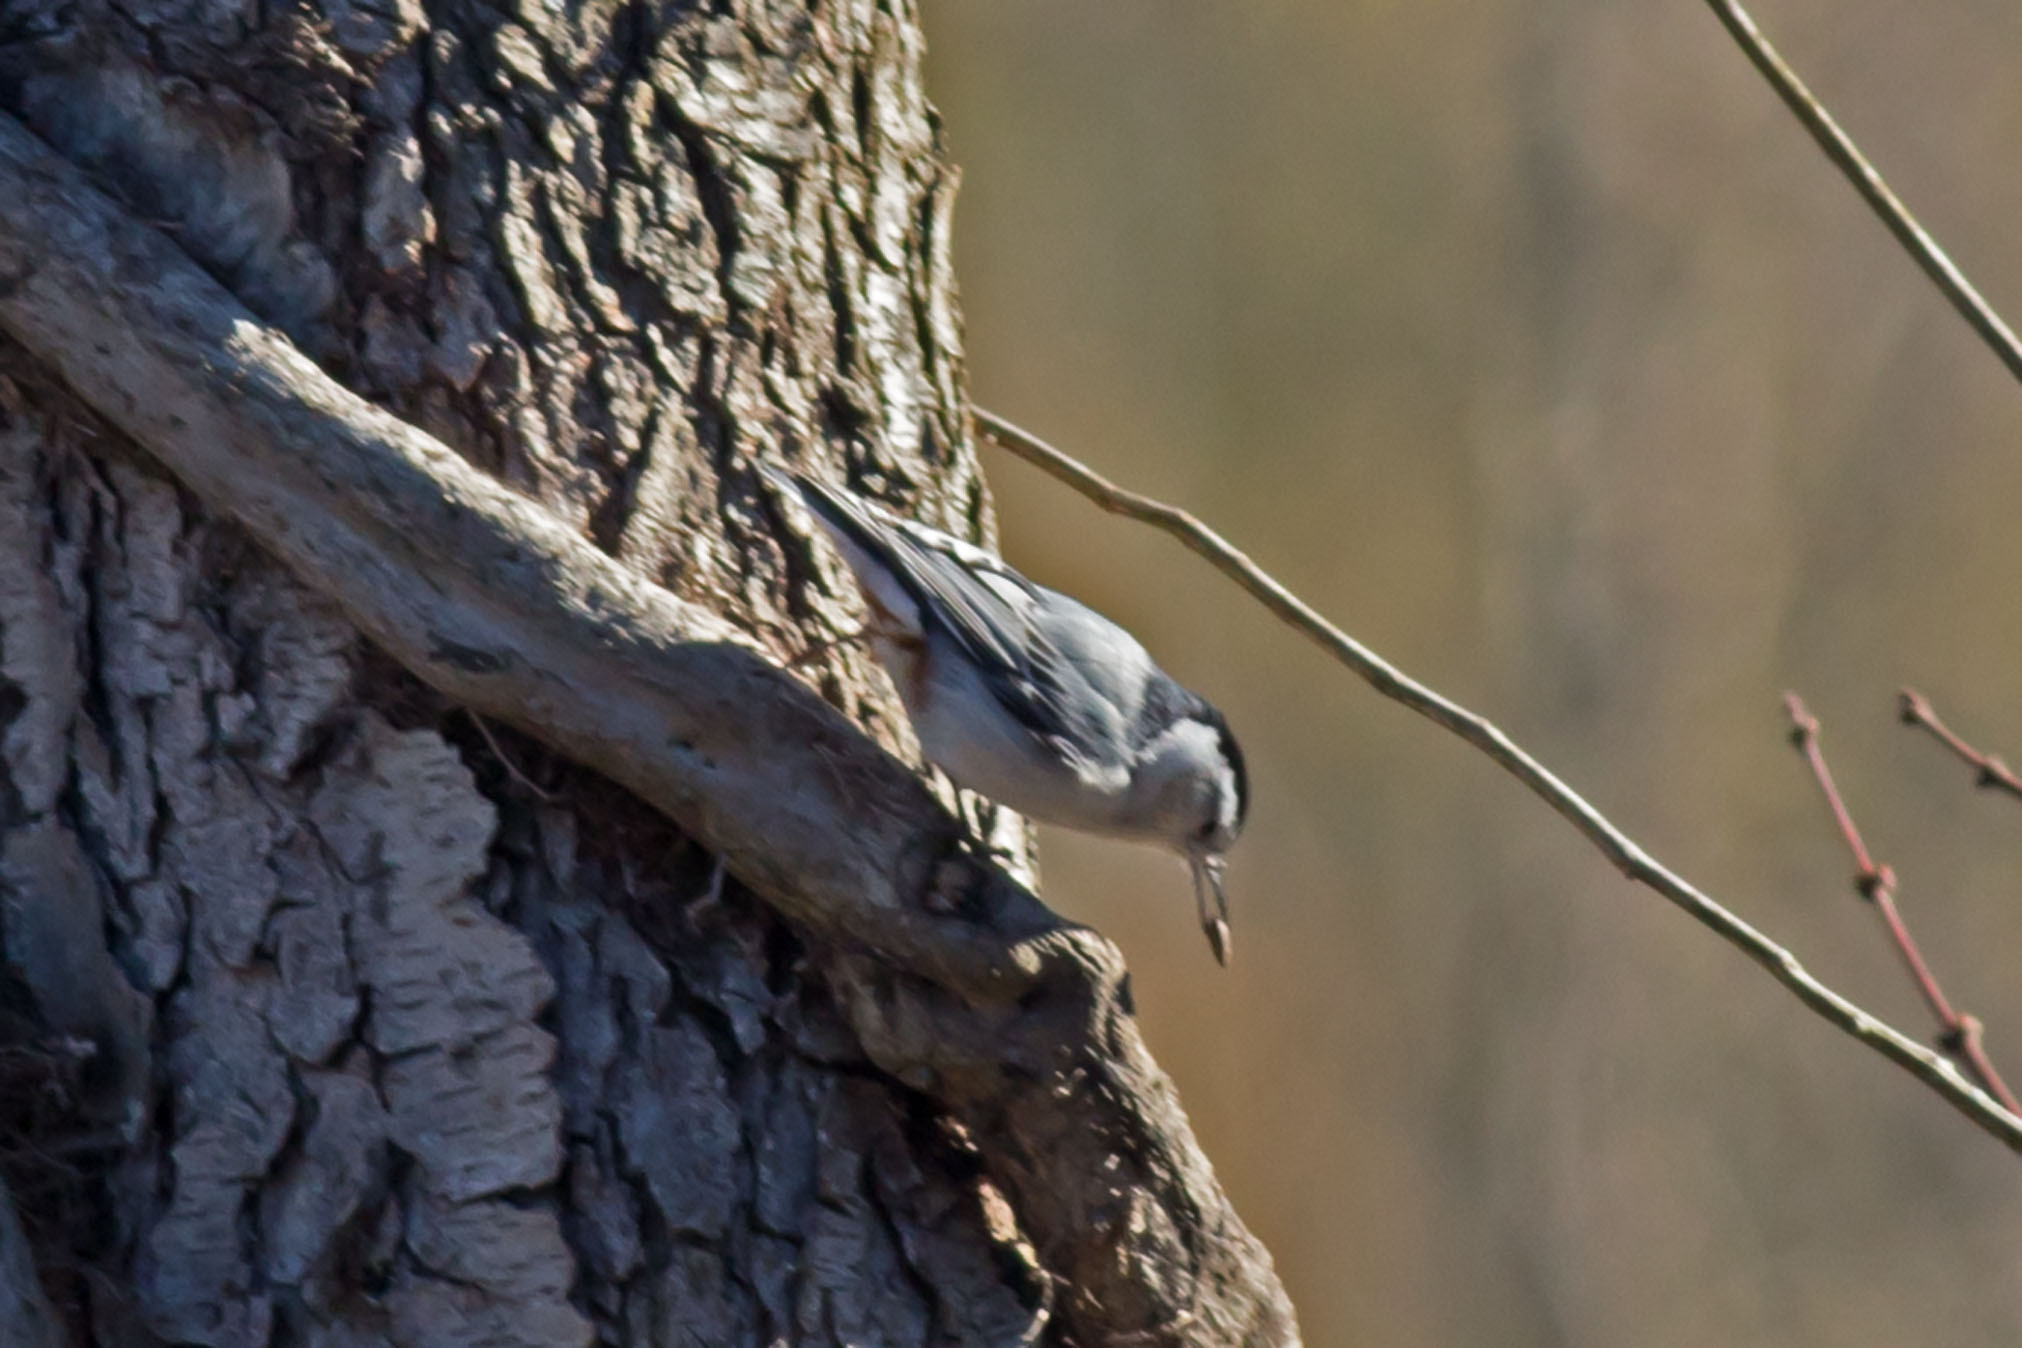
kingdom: Animalia
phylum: Chordata
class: Aves
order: Passeriformes
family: Sittidae
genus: Sitta
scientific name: Sitta carolinensis
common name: White-breasted nuthatch
